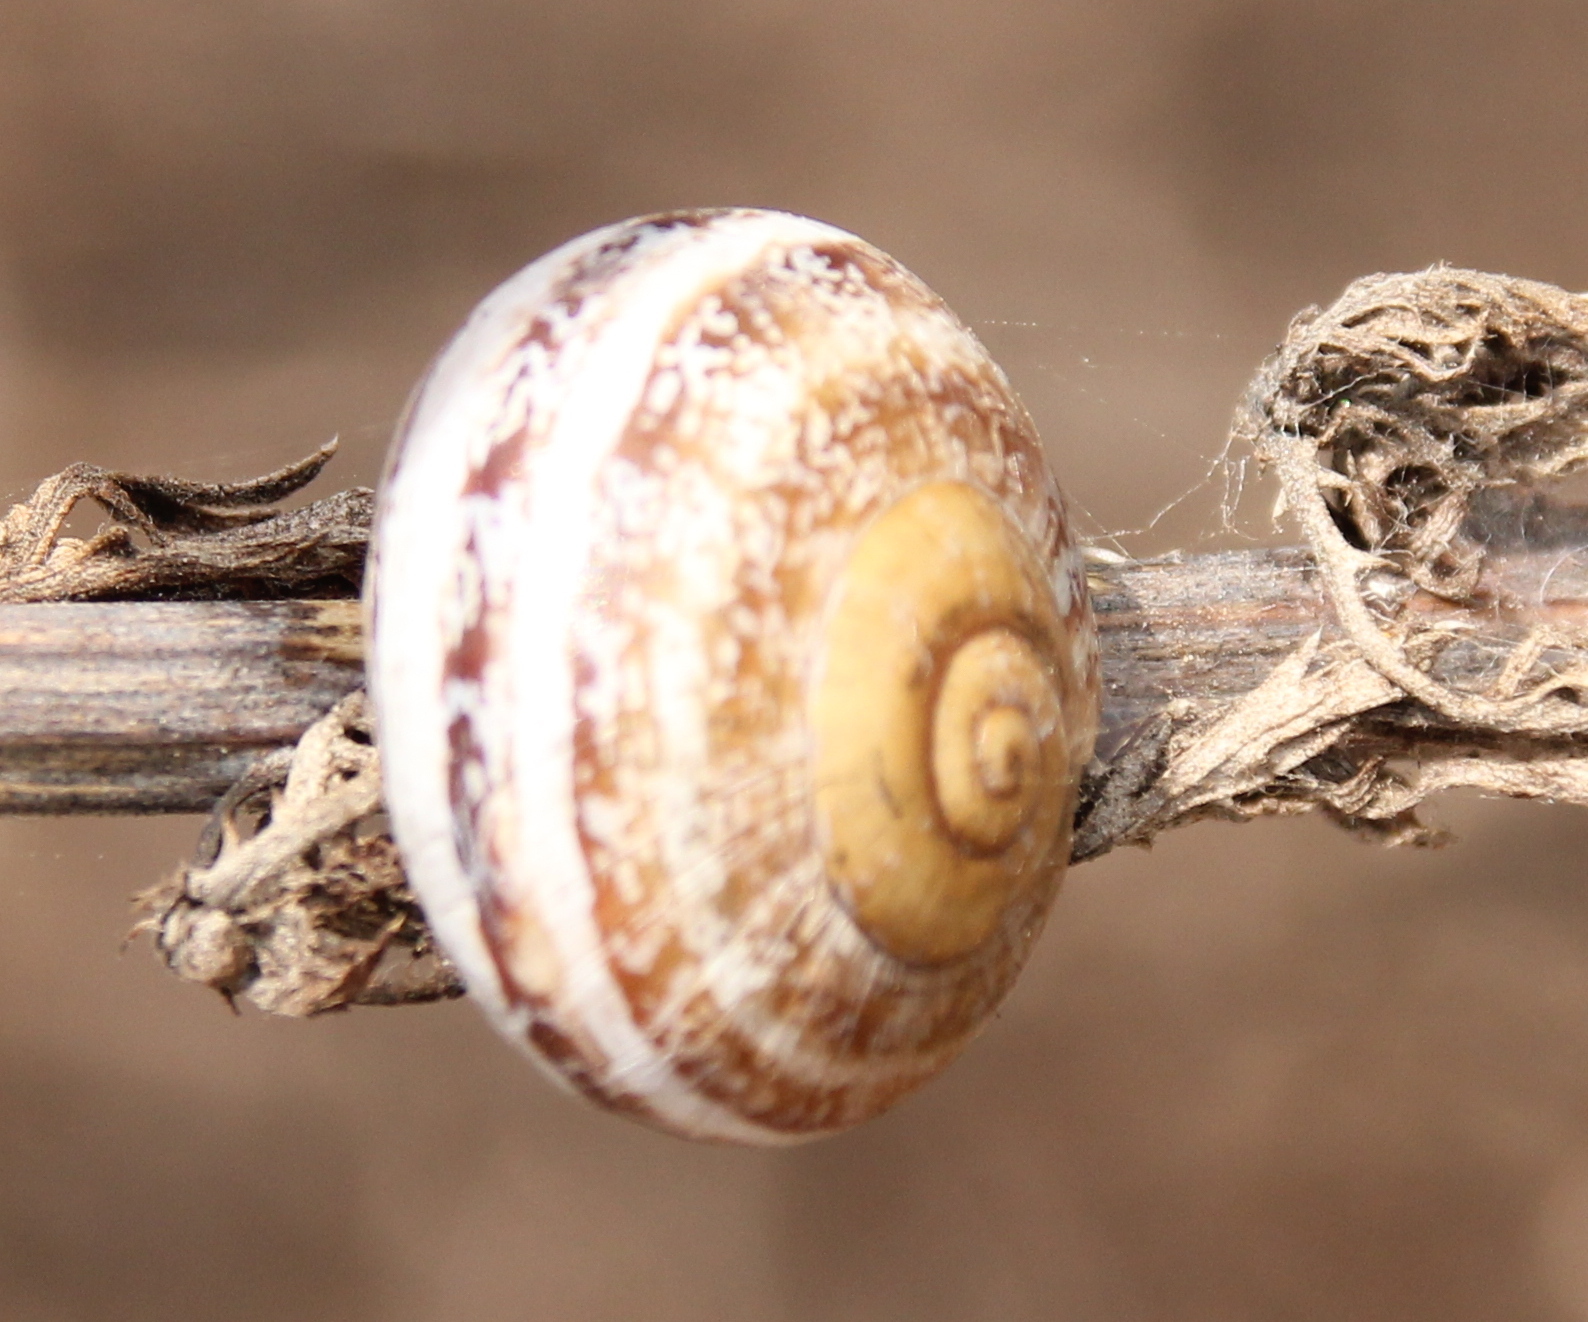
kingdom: Animalia
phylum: Mollusca
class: Gastropoda
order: Stylommatophora
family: Helicidae
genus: Otala
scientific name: Otala lactea
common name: Milk snail
